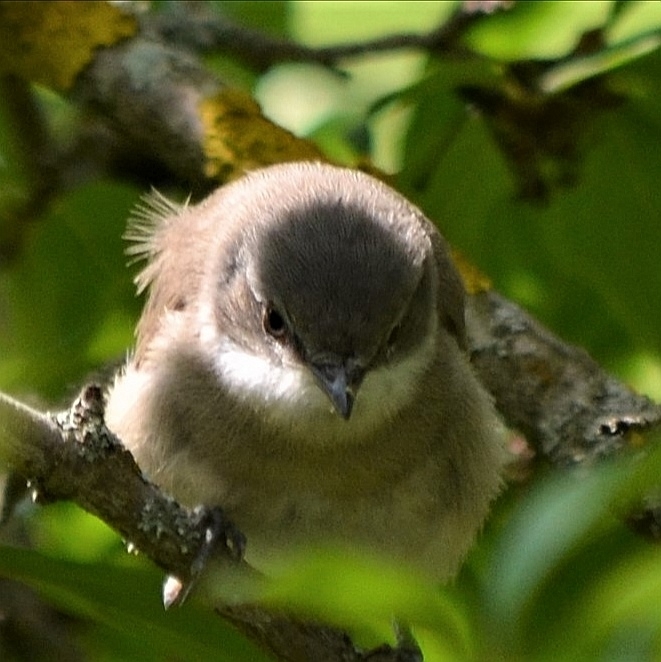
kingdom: Animalia
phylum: Chordata
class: Aves
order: Passeriformes
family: Sylviidae
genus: Sylvia
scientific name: Sylvia curruca
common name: Lesser whitethroat
